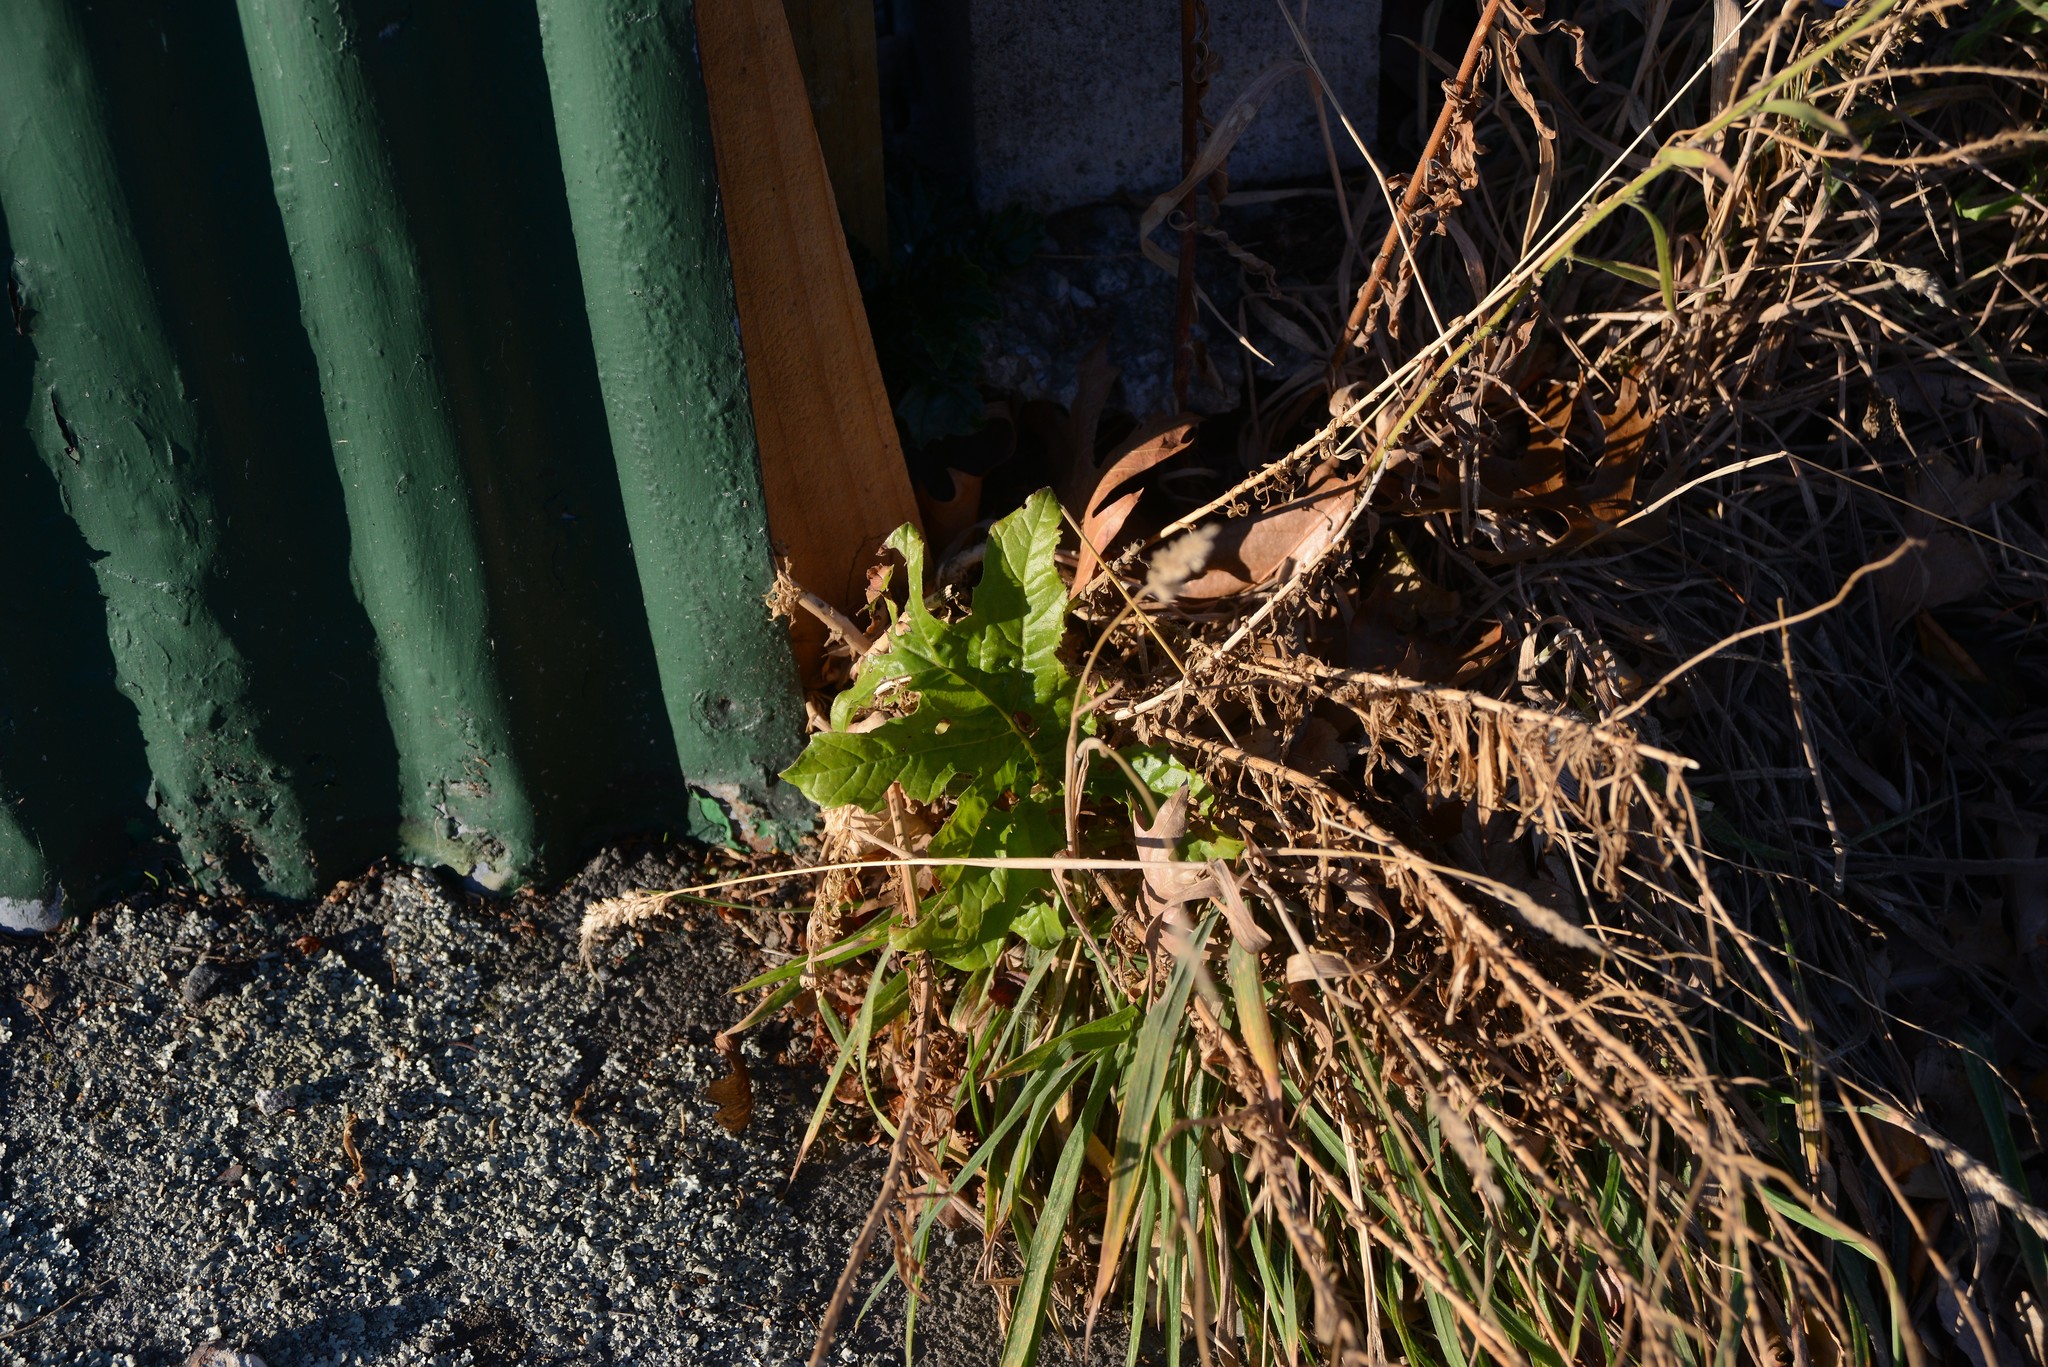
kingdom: Plantae
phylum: Tracheophyta
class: Magnoliopsida
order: Lamiales
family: Acanthaceae
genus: Acanthus
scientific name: Acanthus mollis
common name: Bear's-breech
